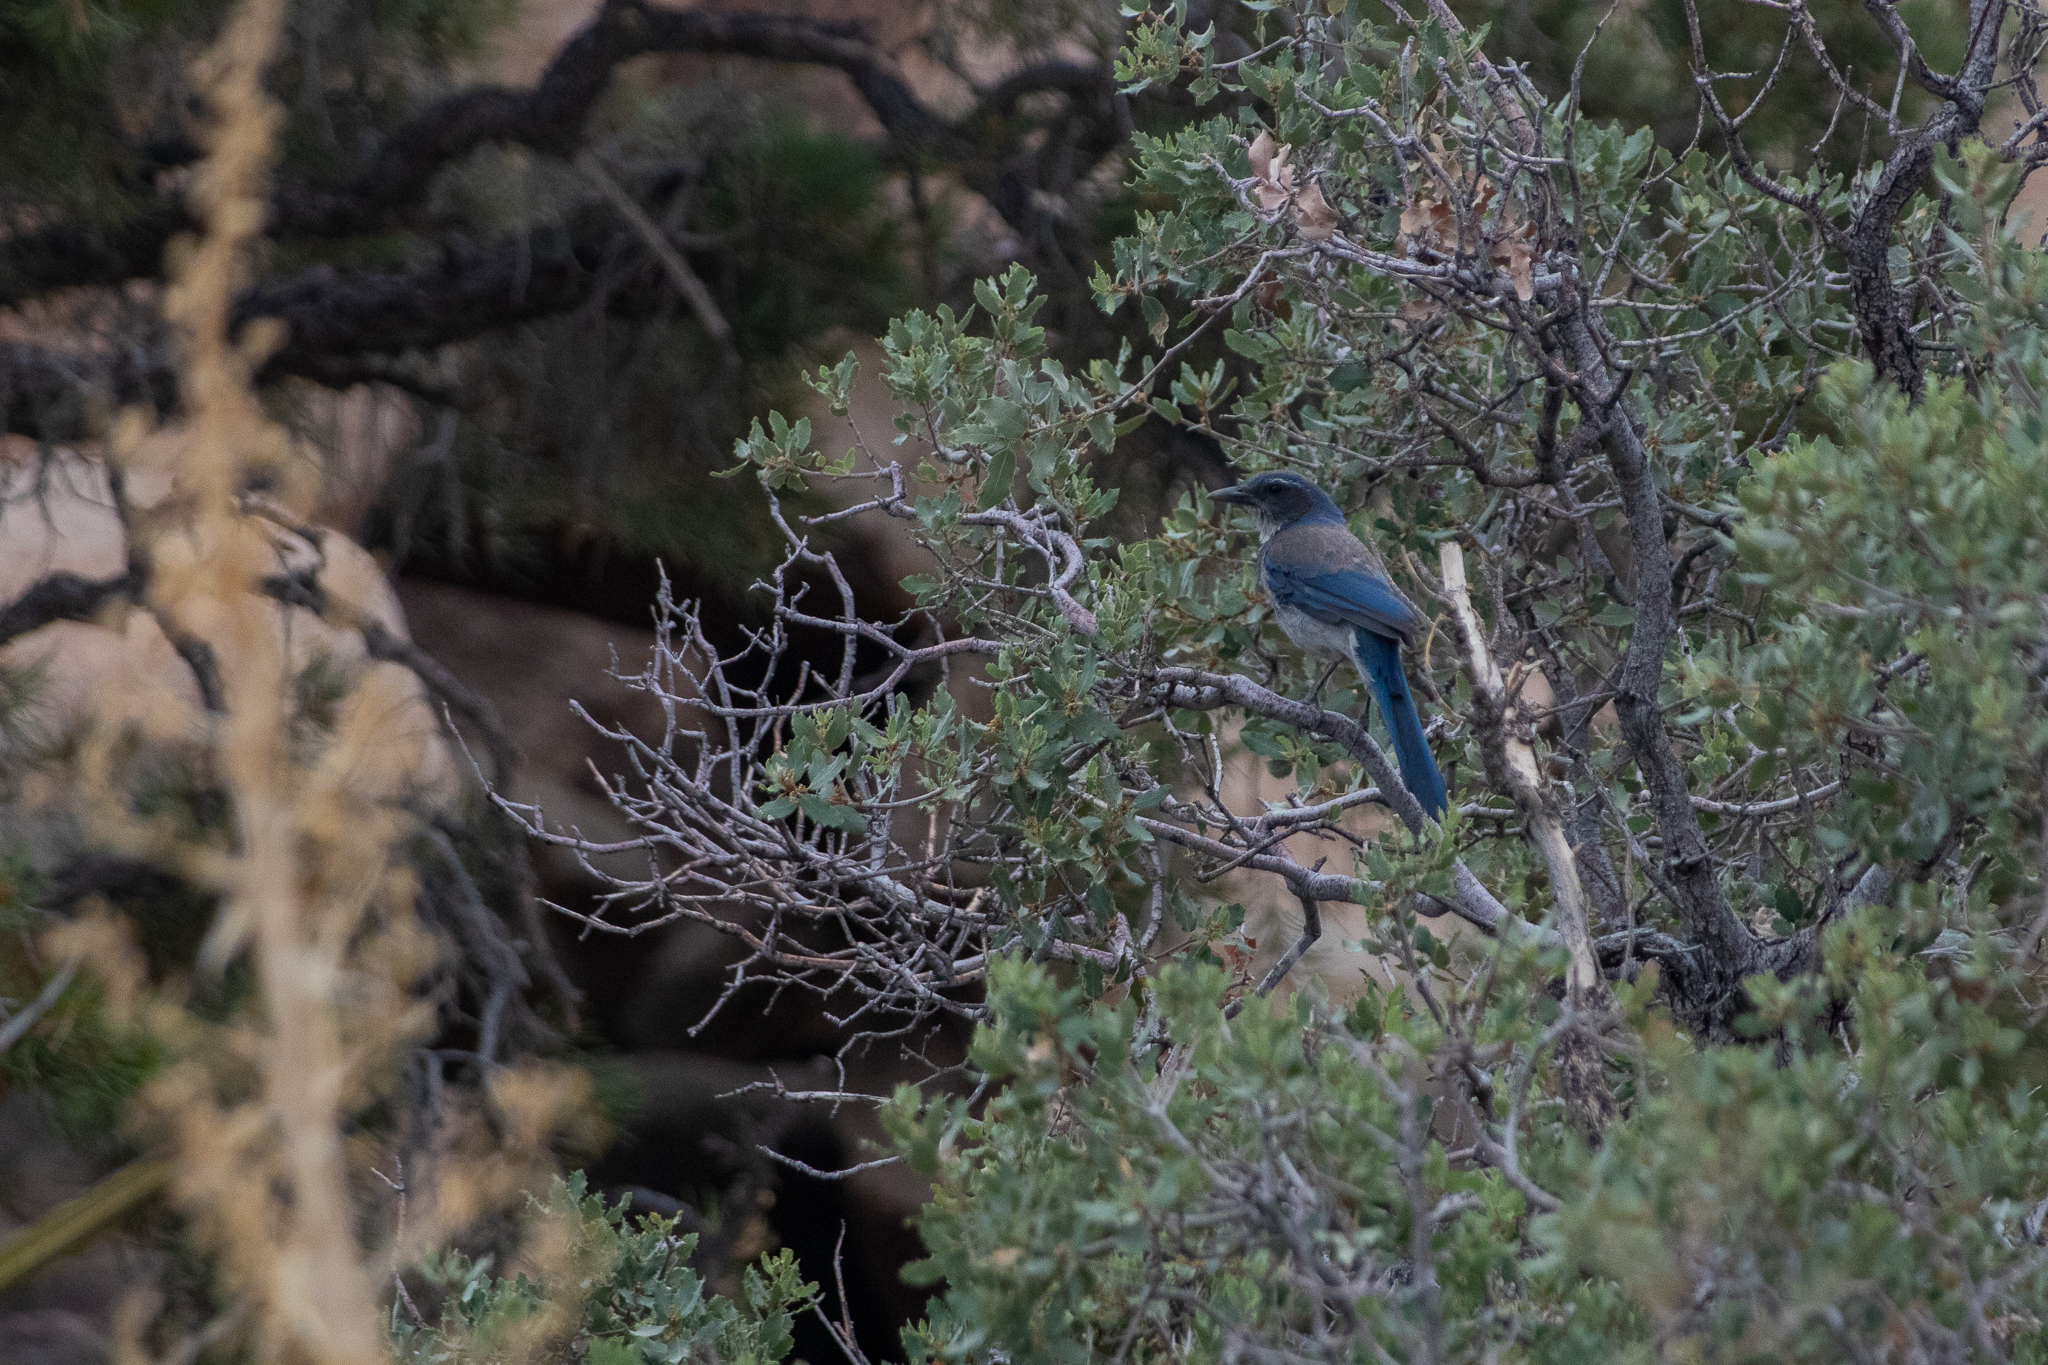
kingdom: Animalia
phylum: Chordata
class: Aves
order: Passeriformes
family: Corvidae
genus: Aphelocoma
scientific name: Aphelocoma californica
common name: California scrub-jay
